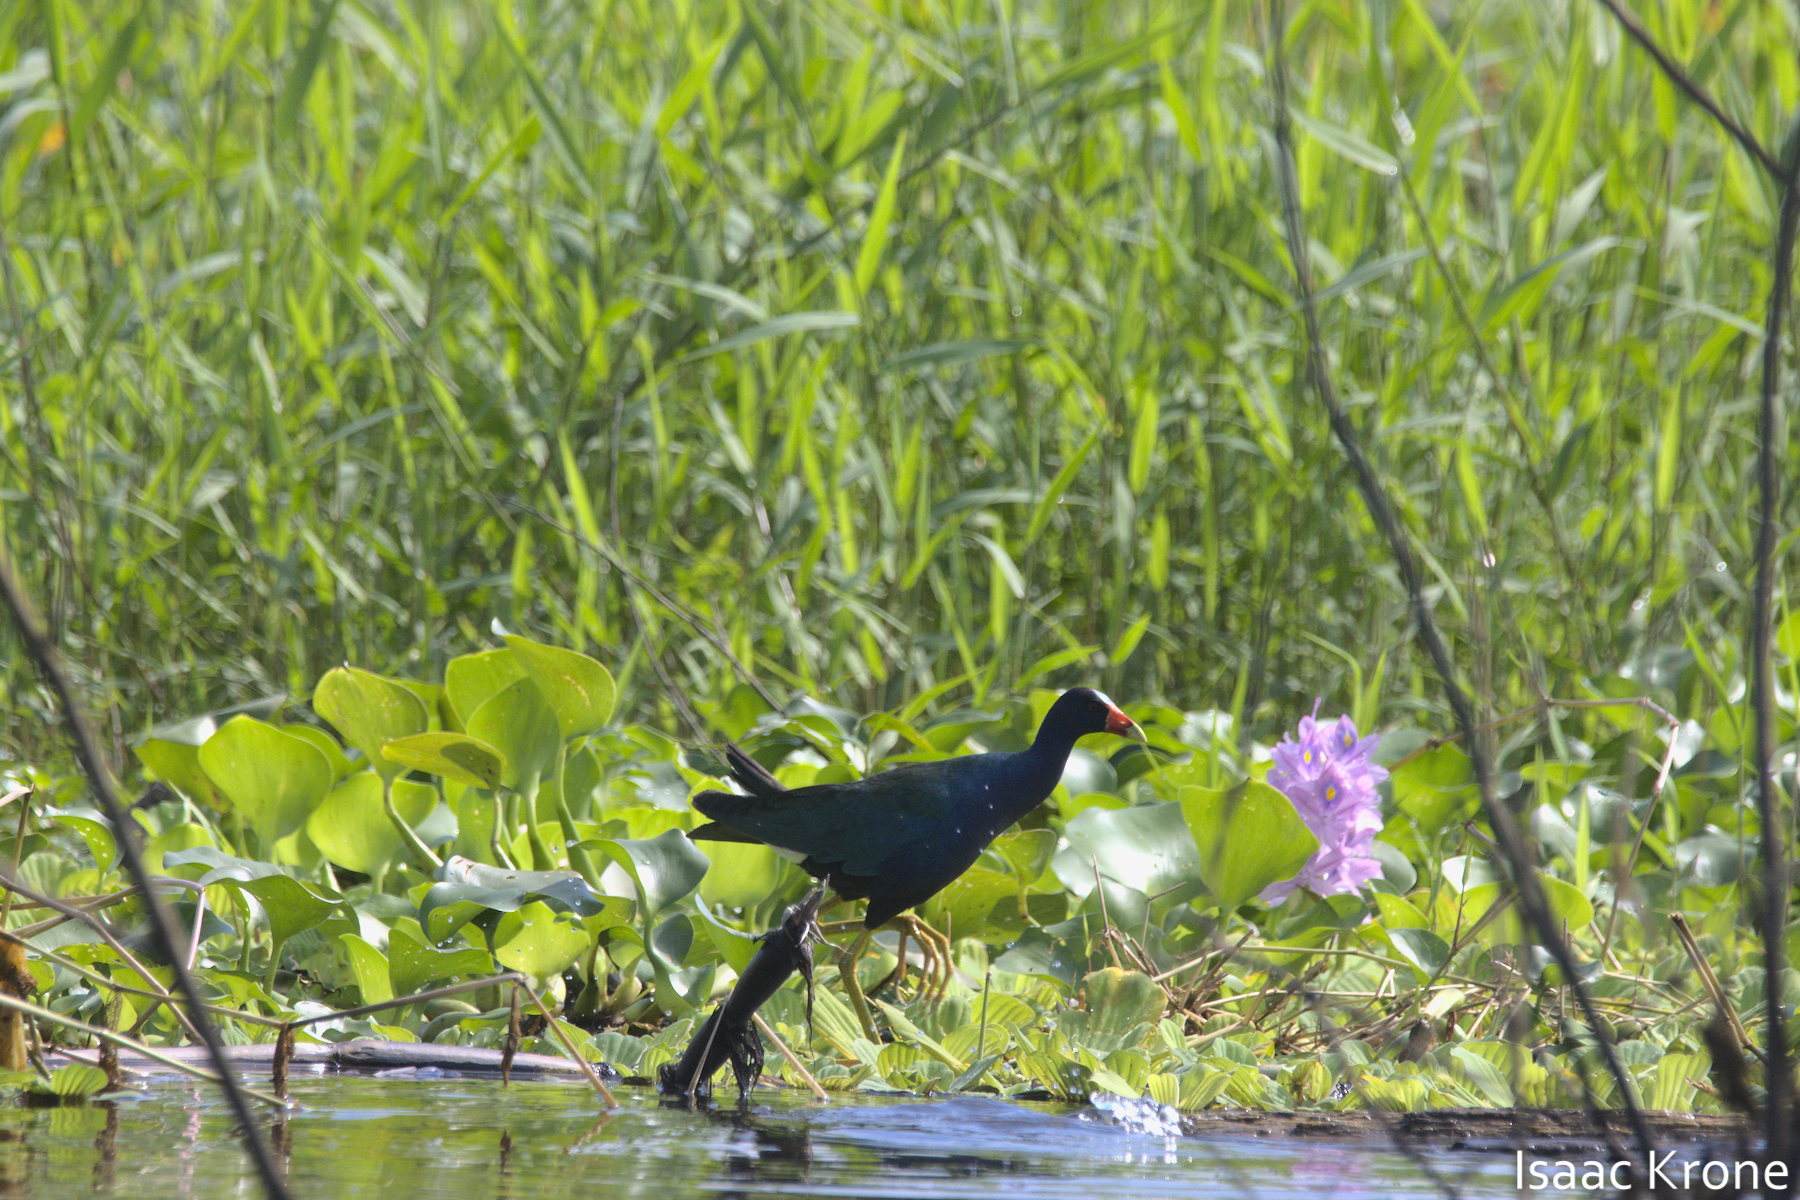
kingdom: Animalia
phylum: Chordata
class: Aves
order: Gruiformes
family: Rallidae
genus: Porphyrio
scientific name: Porphyrio martinica
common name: Purple gallinule
